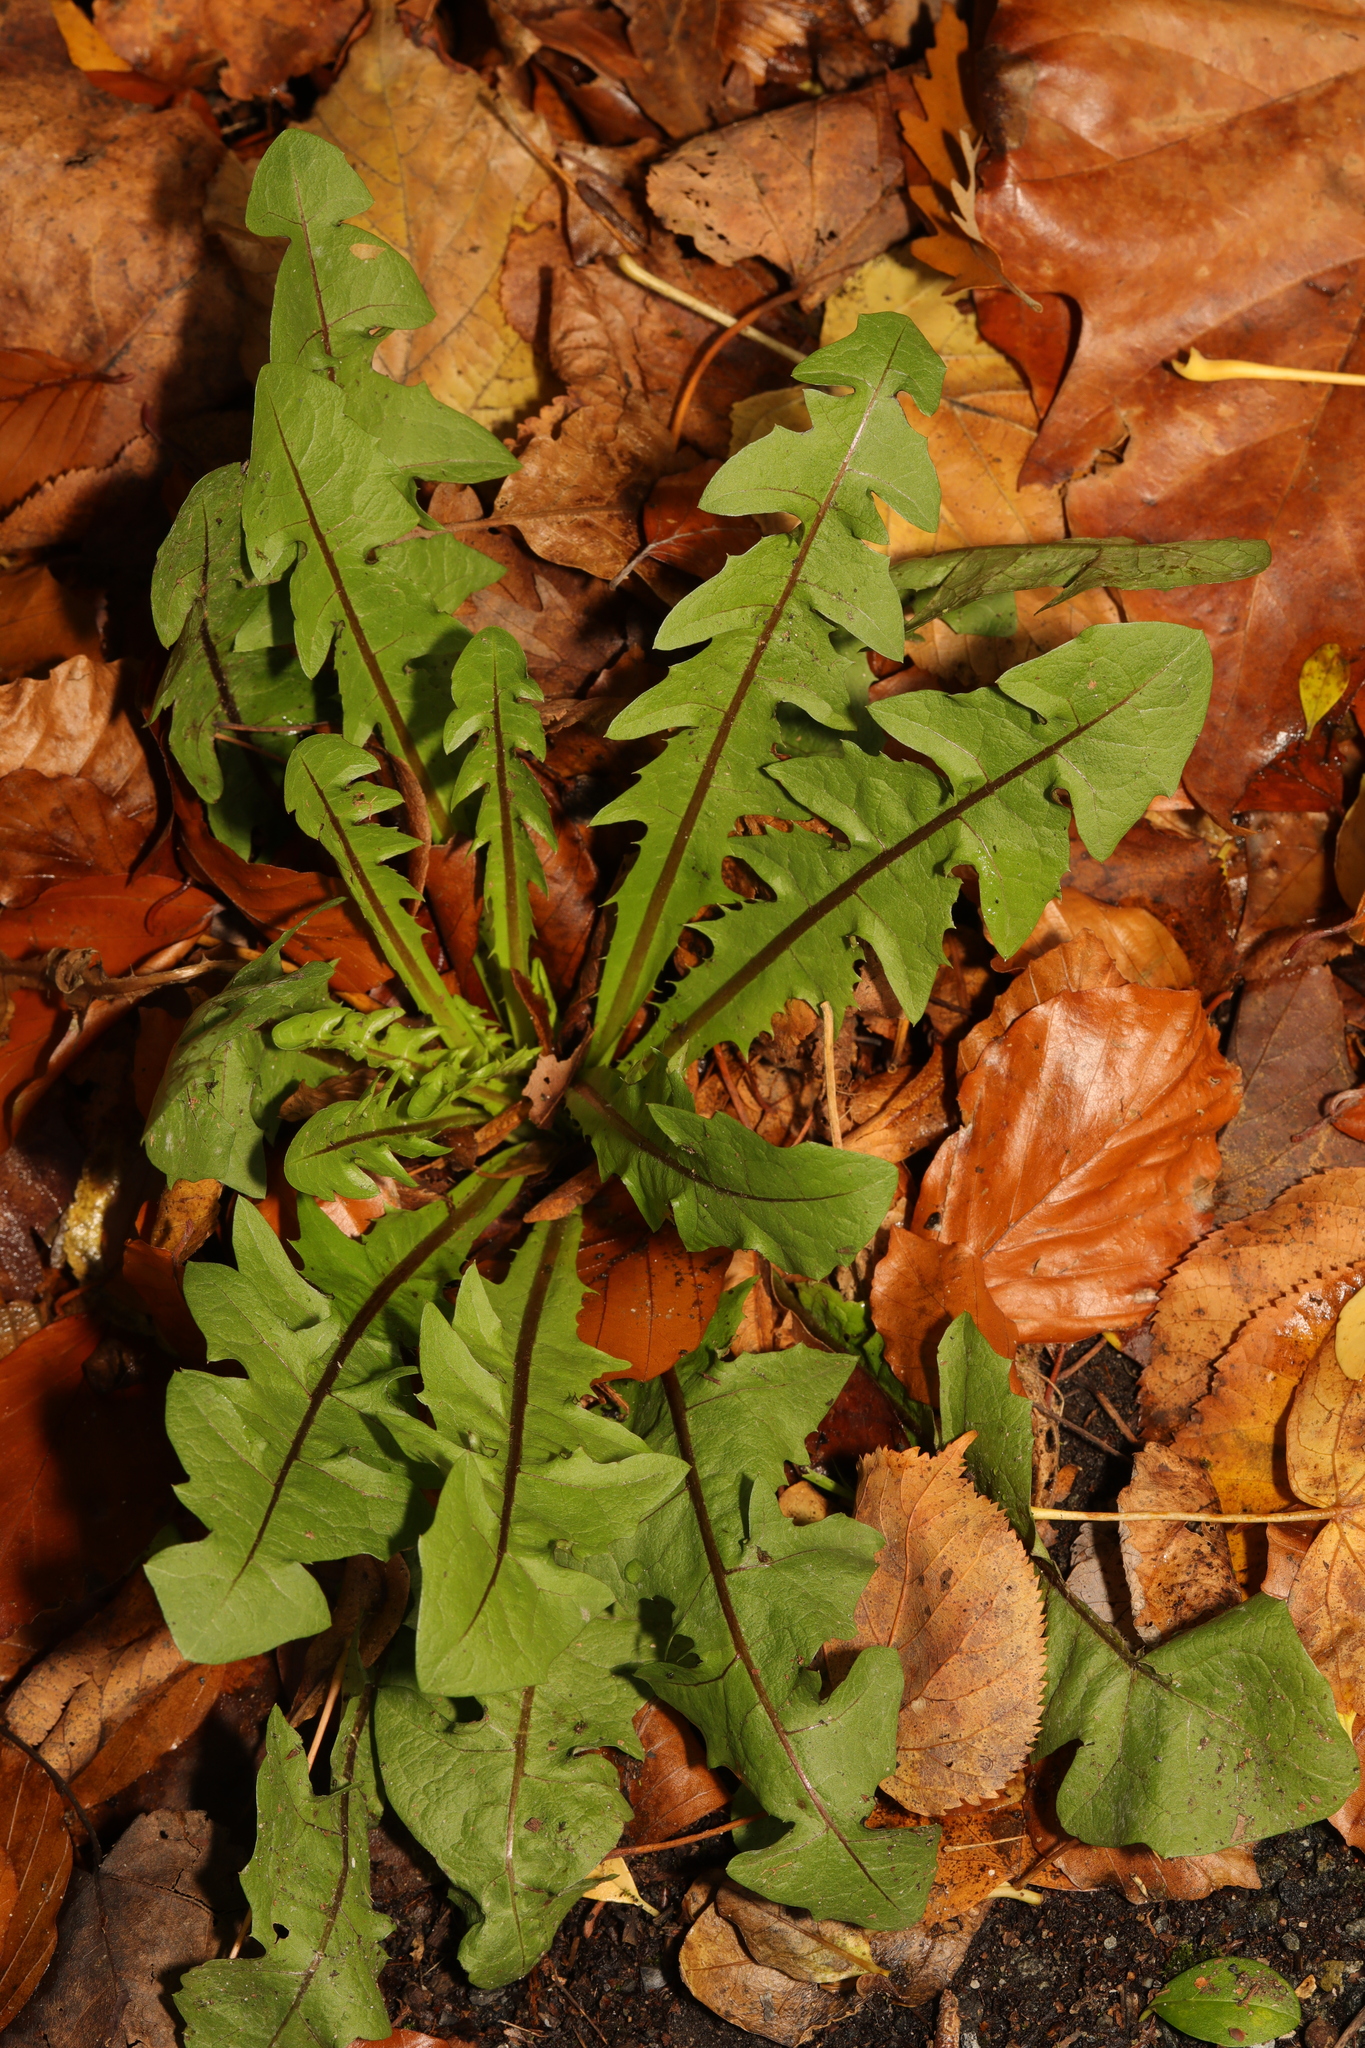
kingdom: Plantae
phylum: Tracheophyta
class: Magnoliopsida
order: Asterales
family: Asteraceae
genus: Taraxacum
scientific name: Taraxacum officinale
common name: Common dandelion
